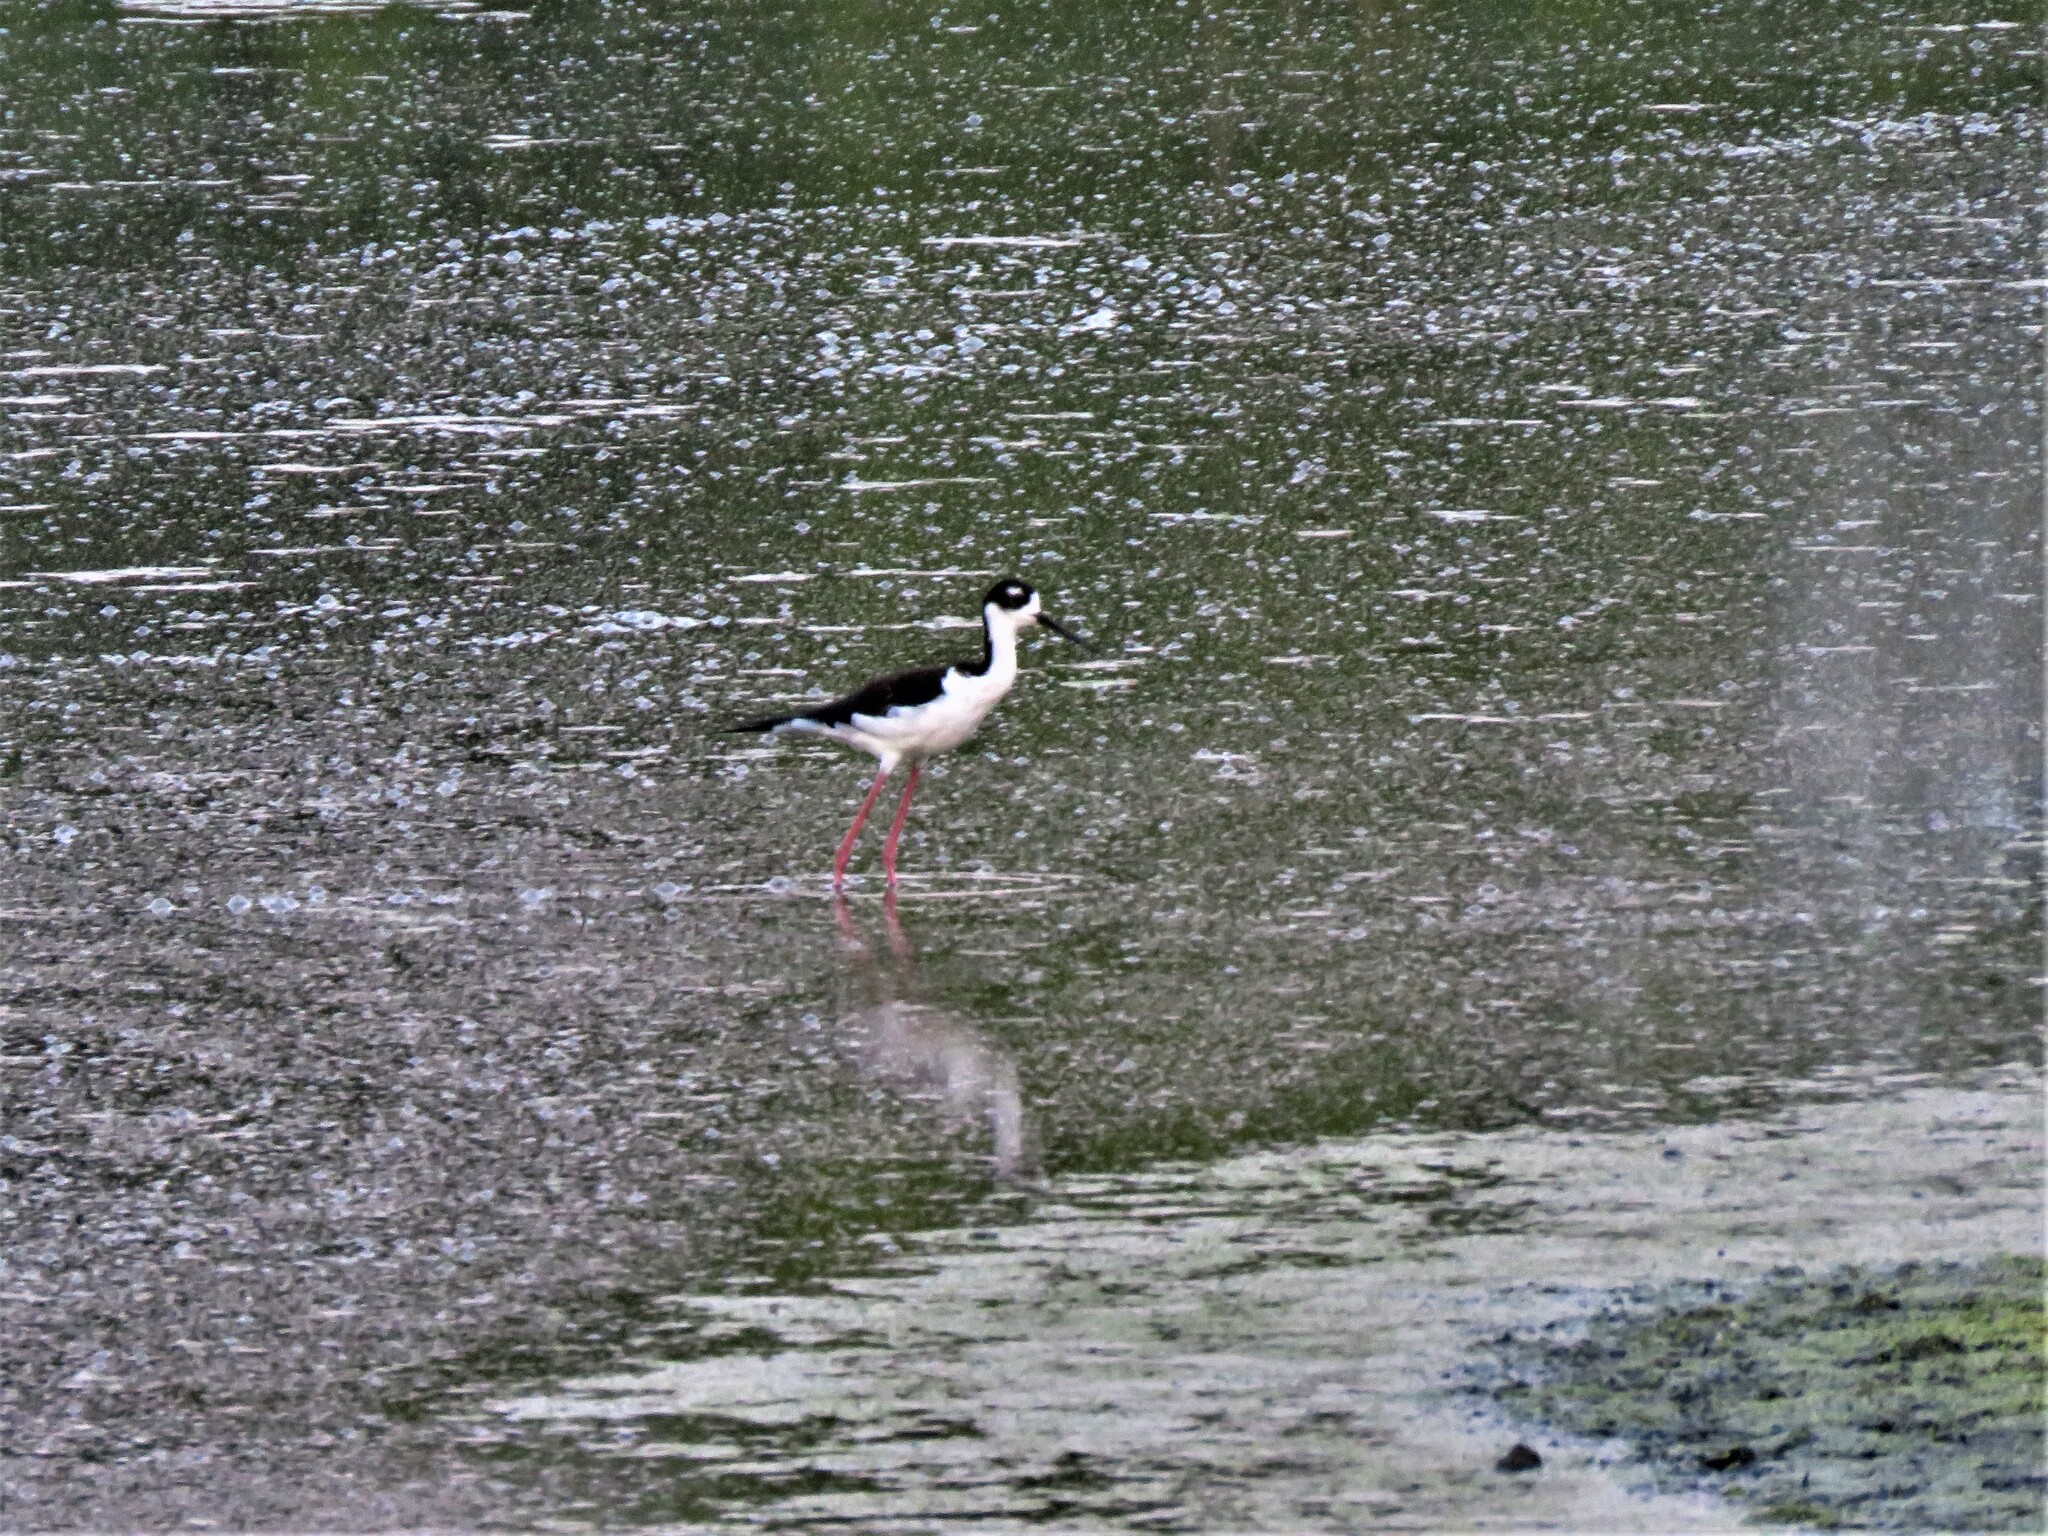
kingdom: Animalia
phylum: Chordata
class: Aves
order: Charadriiformes
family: Recurvirostridae
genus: Himantopus
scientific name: Himantopus mexicanus
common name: Black-necked stilt
